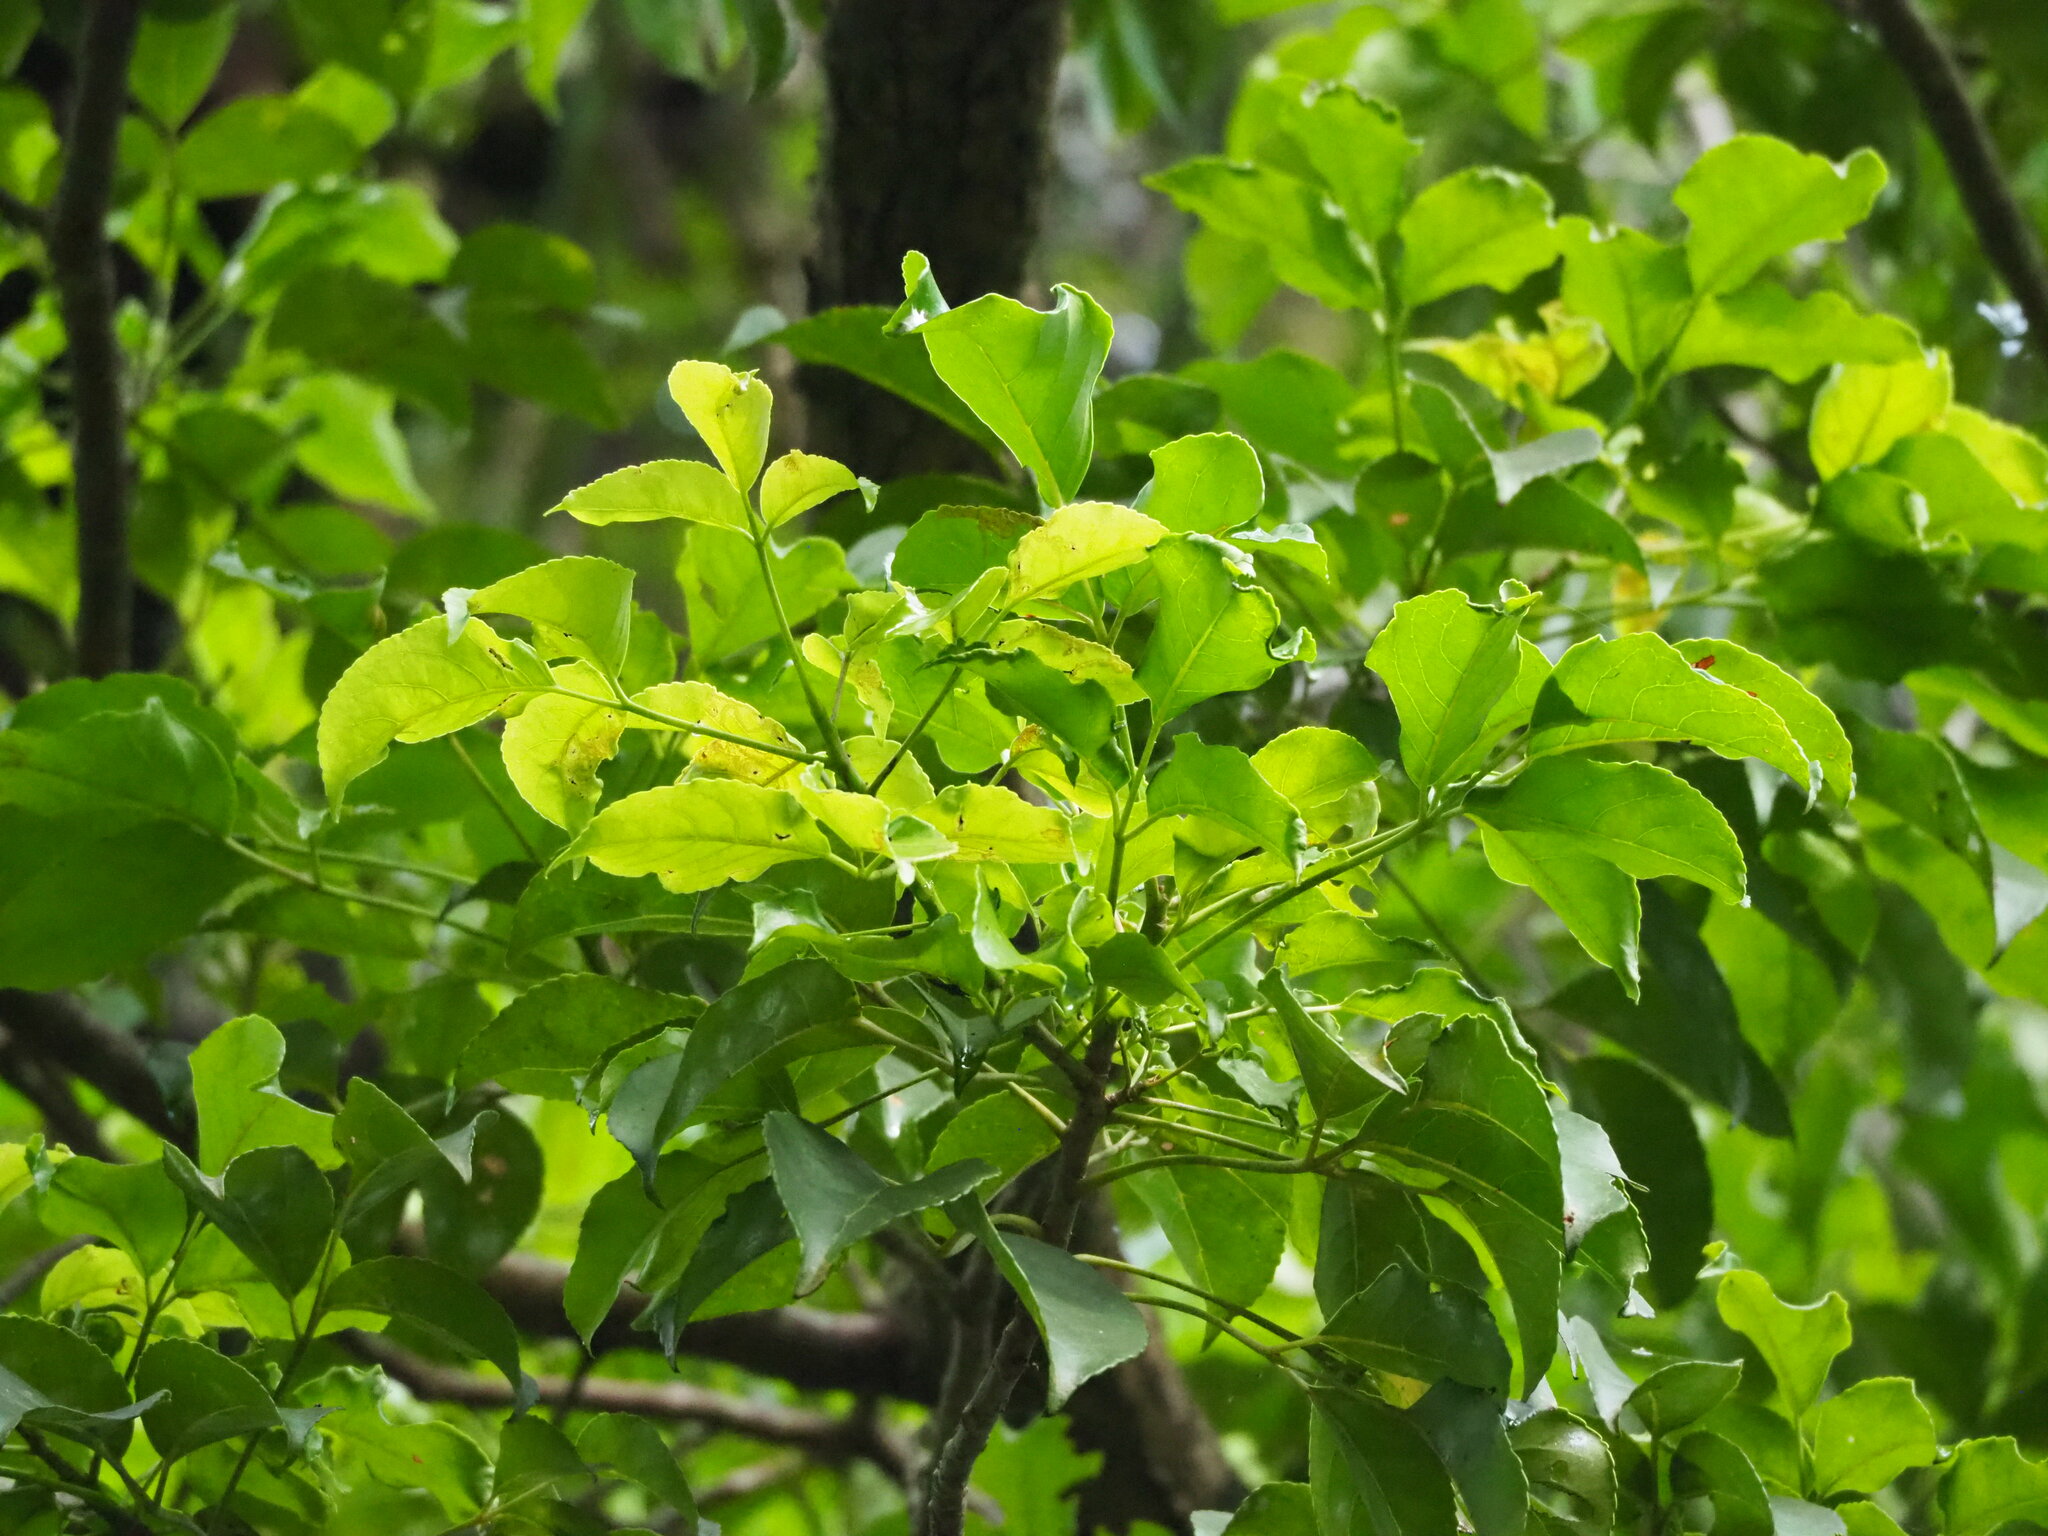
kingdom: Plantae
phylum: Tracheophyta
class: Magnoliopsida
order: Malvales
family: Malvaceae
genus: Kleinhovia
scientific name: Kleinhovia hospita
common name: Guest-tree
